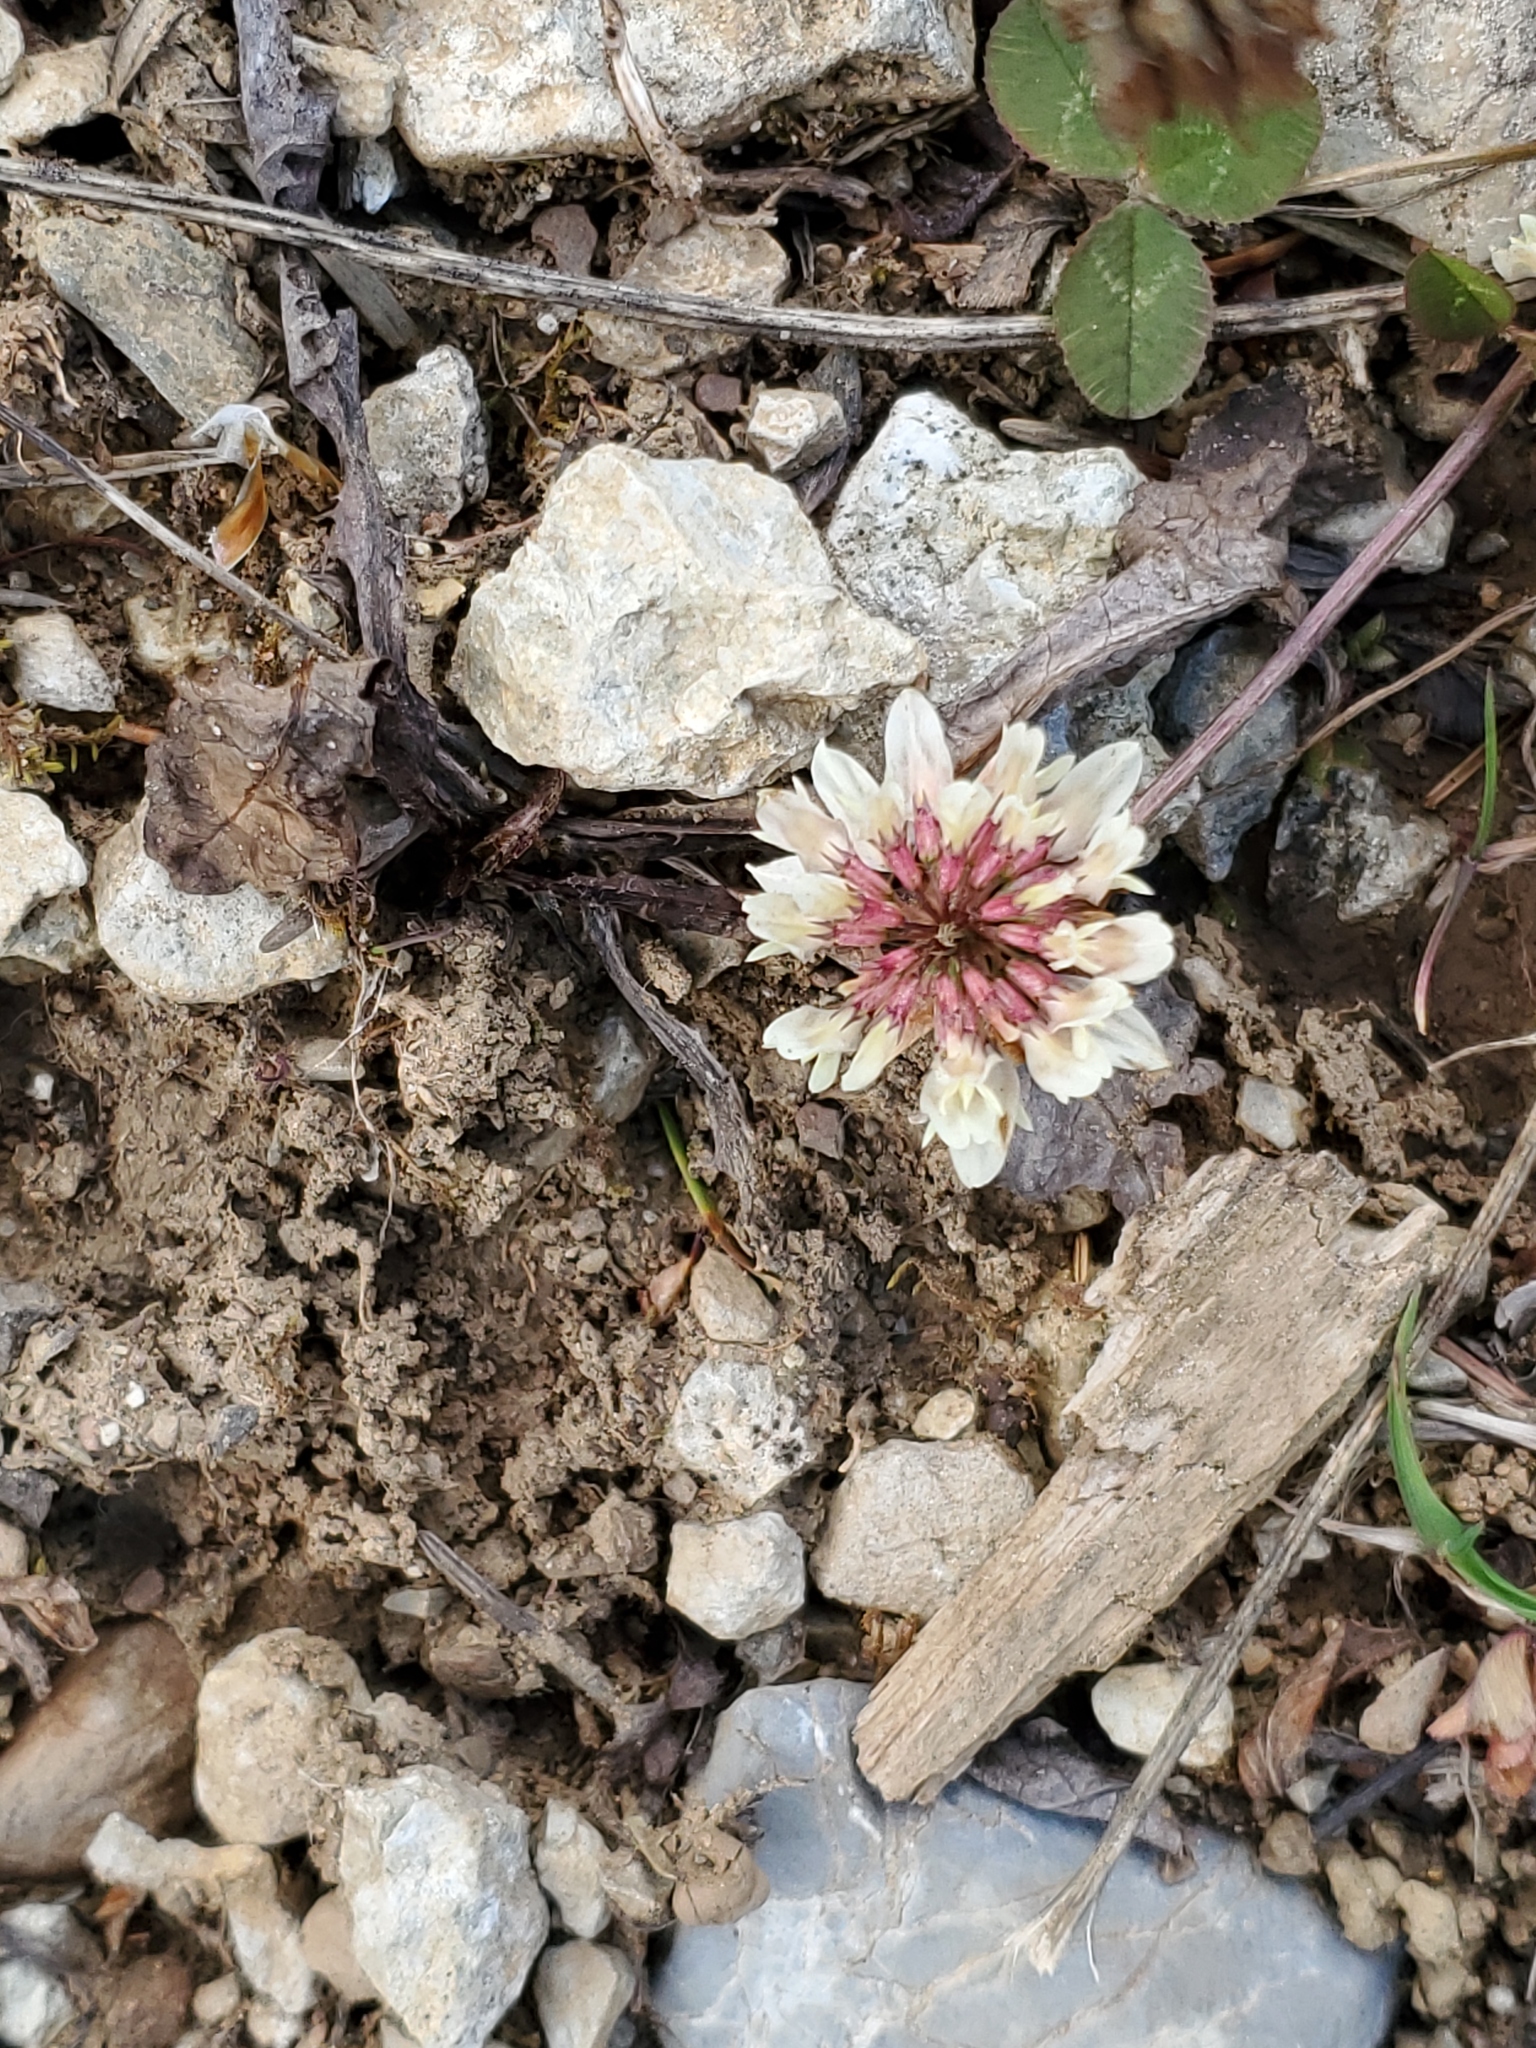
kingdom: Plantae
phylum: Tracheophyta
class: Magnoliopsida
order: Fabales
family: Fabaceae
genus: Trifolium
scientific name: Trifolium repens
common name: White clover
